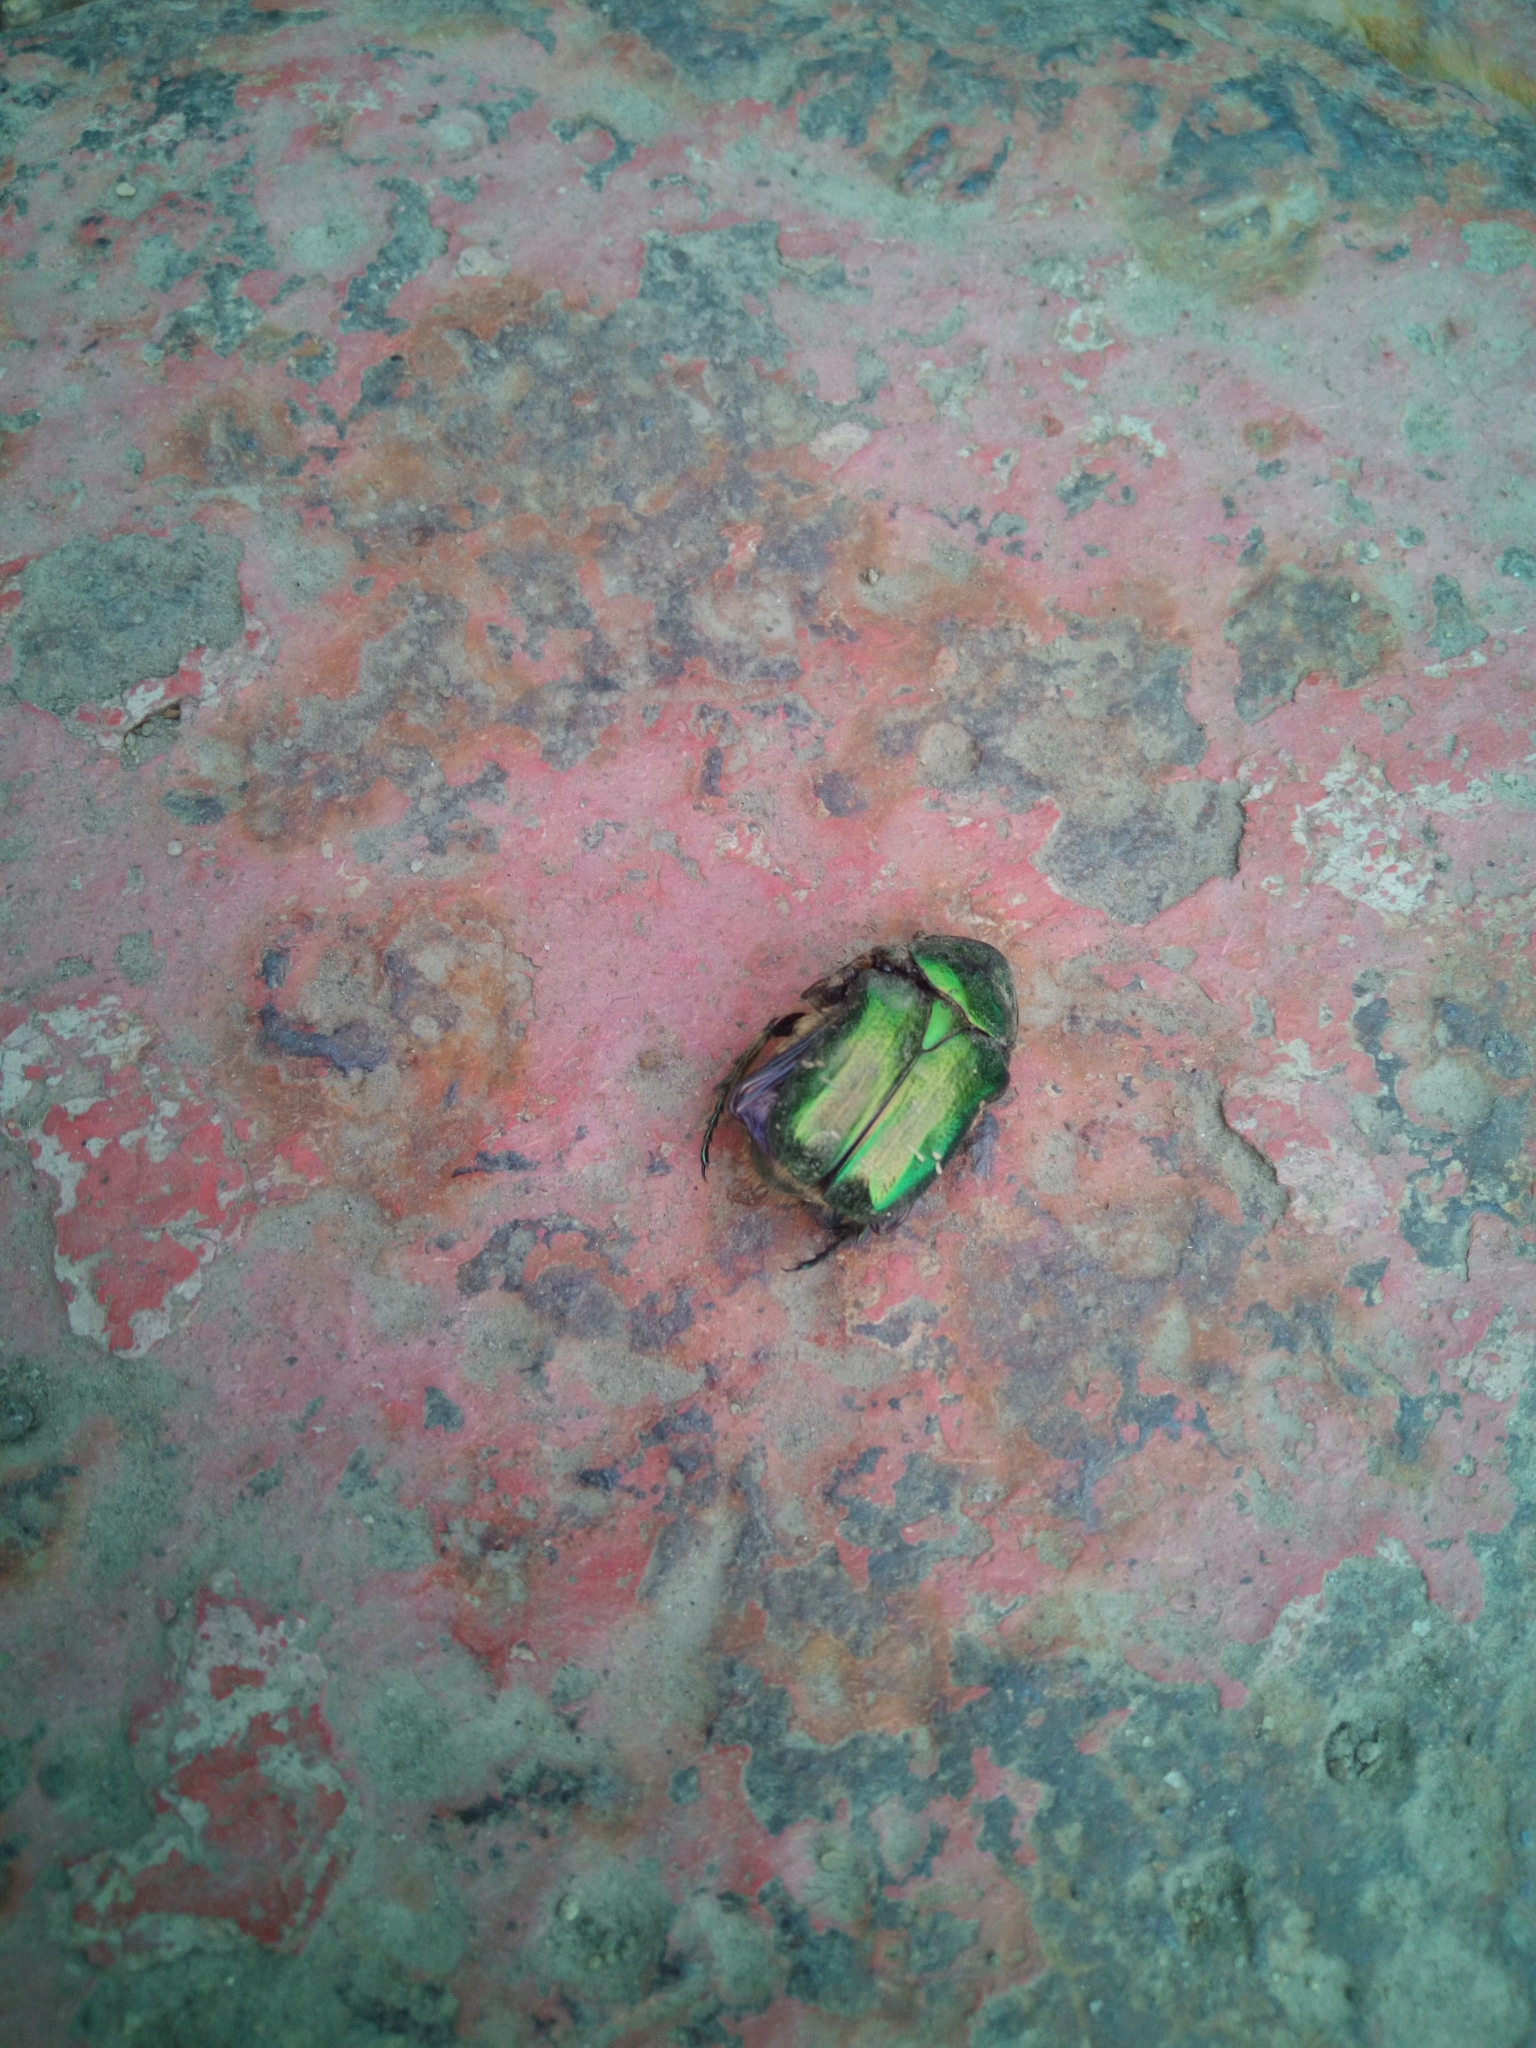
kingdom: Animalia
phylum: Arthropoda
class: Insecta
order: Coleoptera
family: Scarabaeidae
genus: Cetonia
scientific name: Cetonia aurata
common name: Rose chafer
